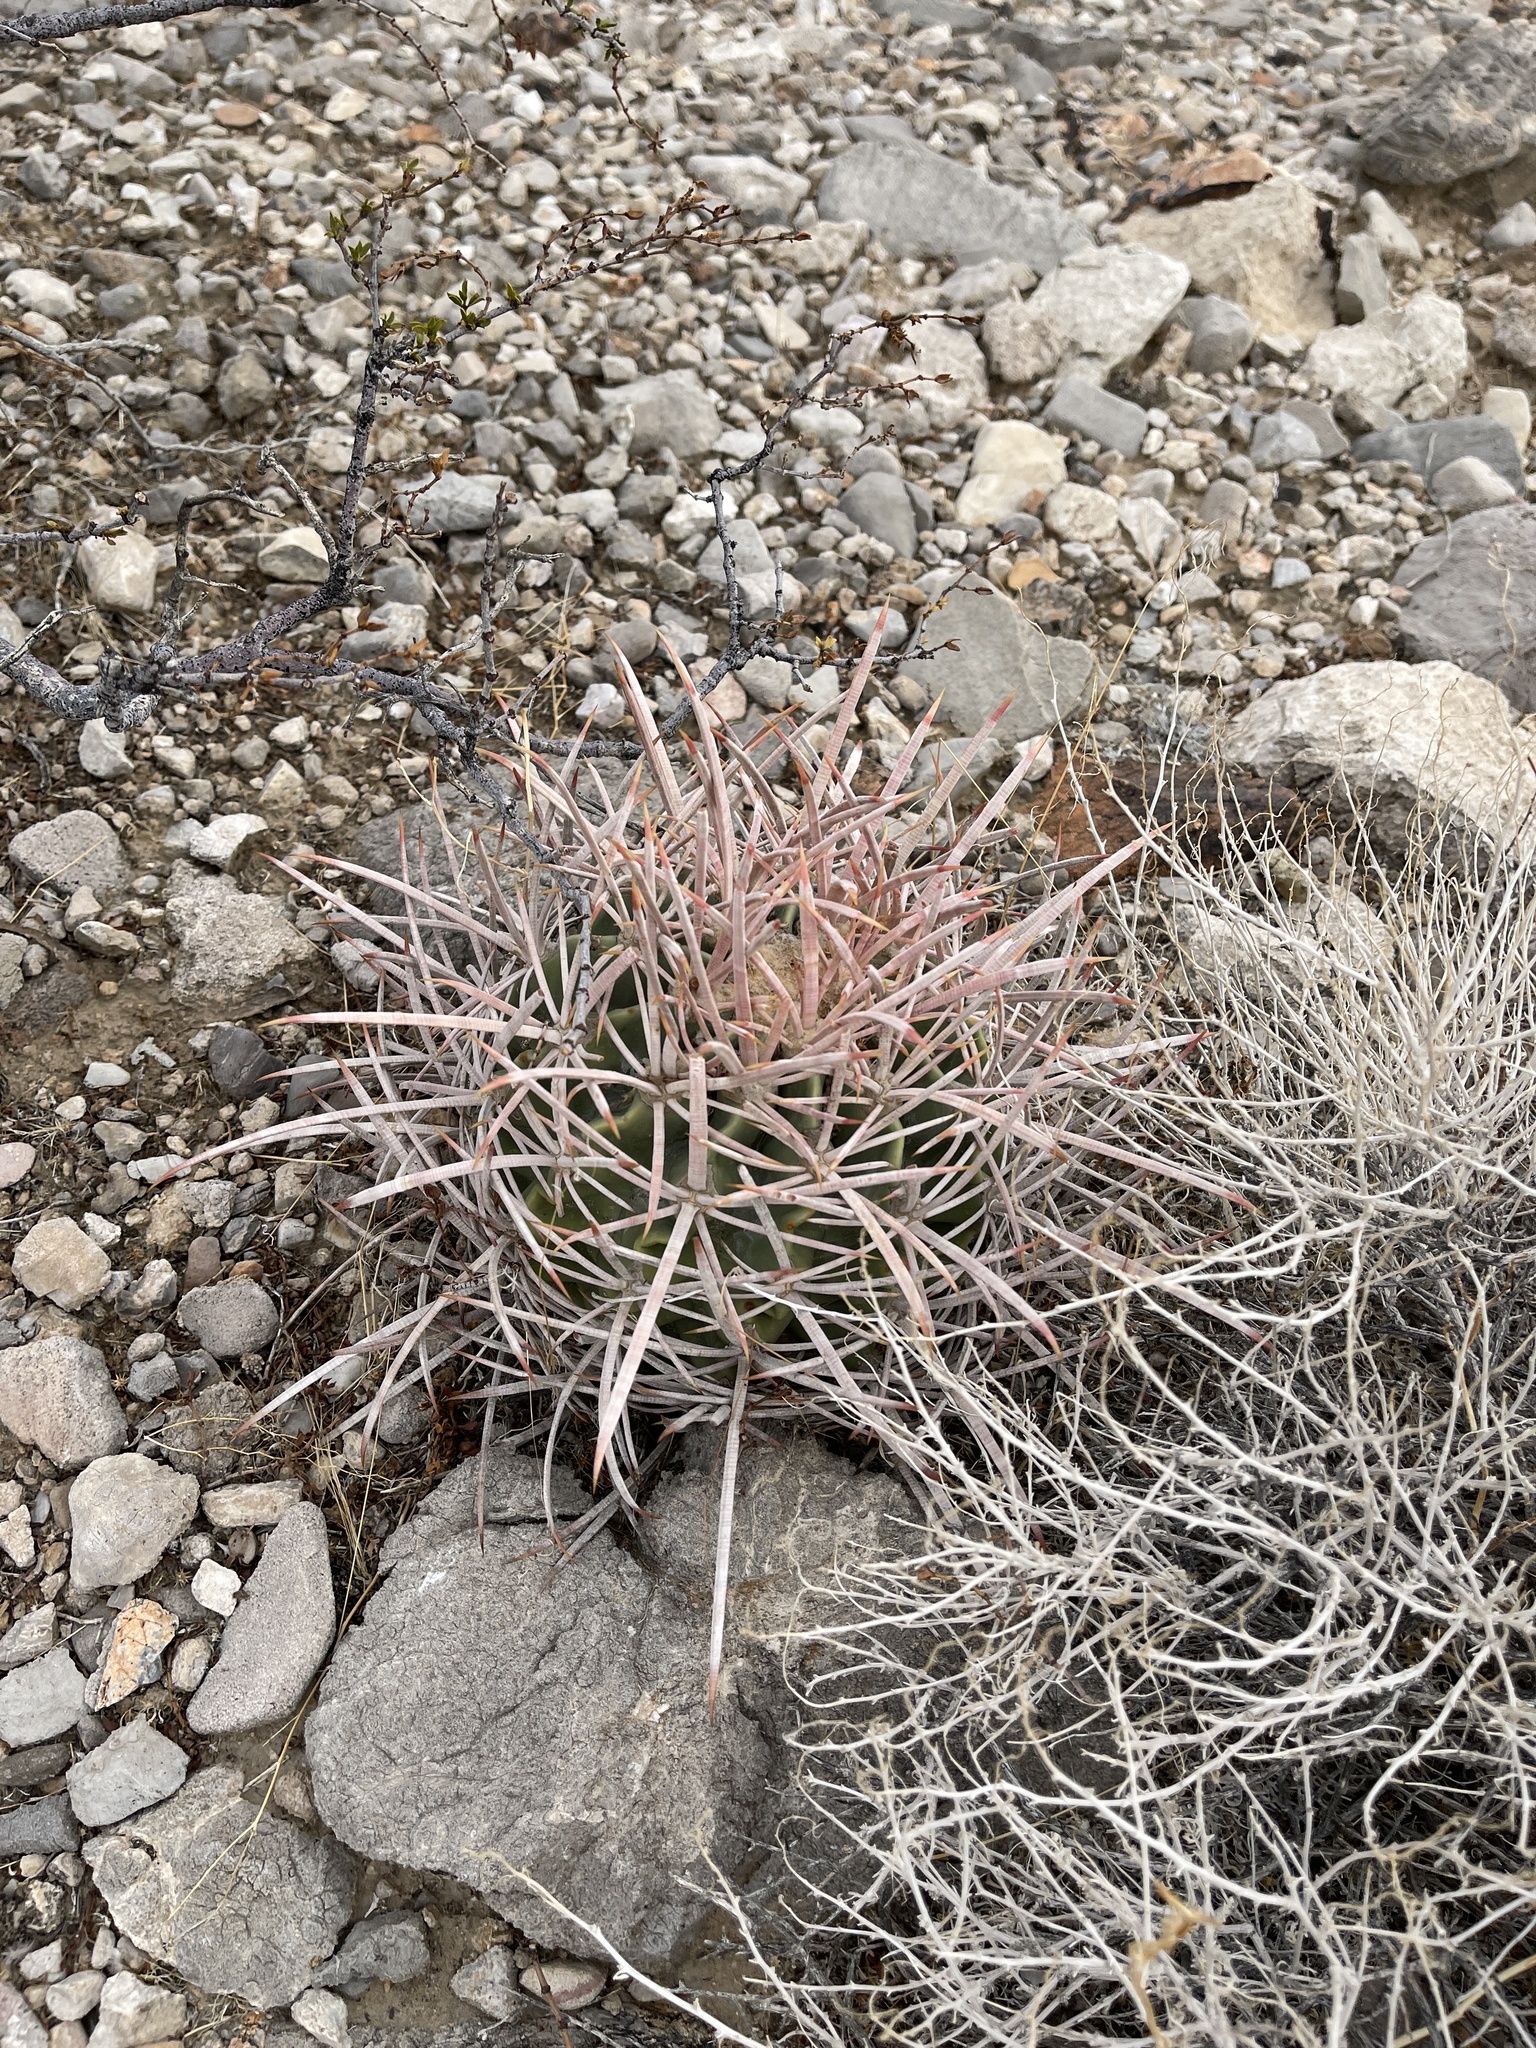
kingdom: Plantae
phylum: Tracheophyta
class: Magnoliopsida
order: Caryophyllales
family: Cactaceae
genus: Echinocactus
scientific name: Echinocactus polycephalus
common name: Cottontop cactus
